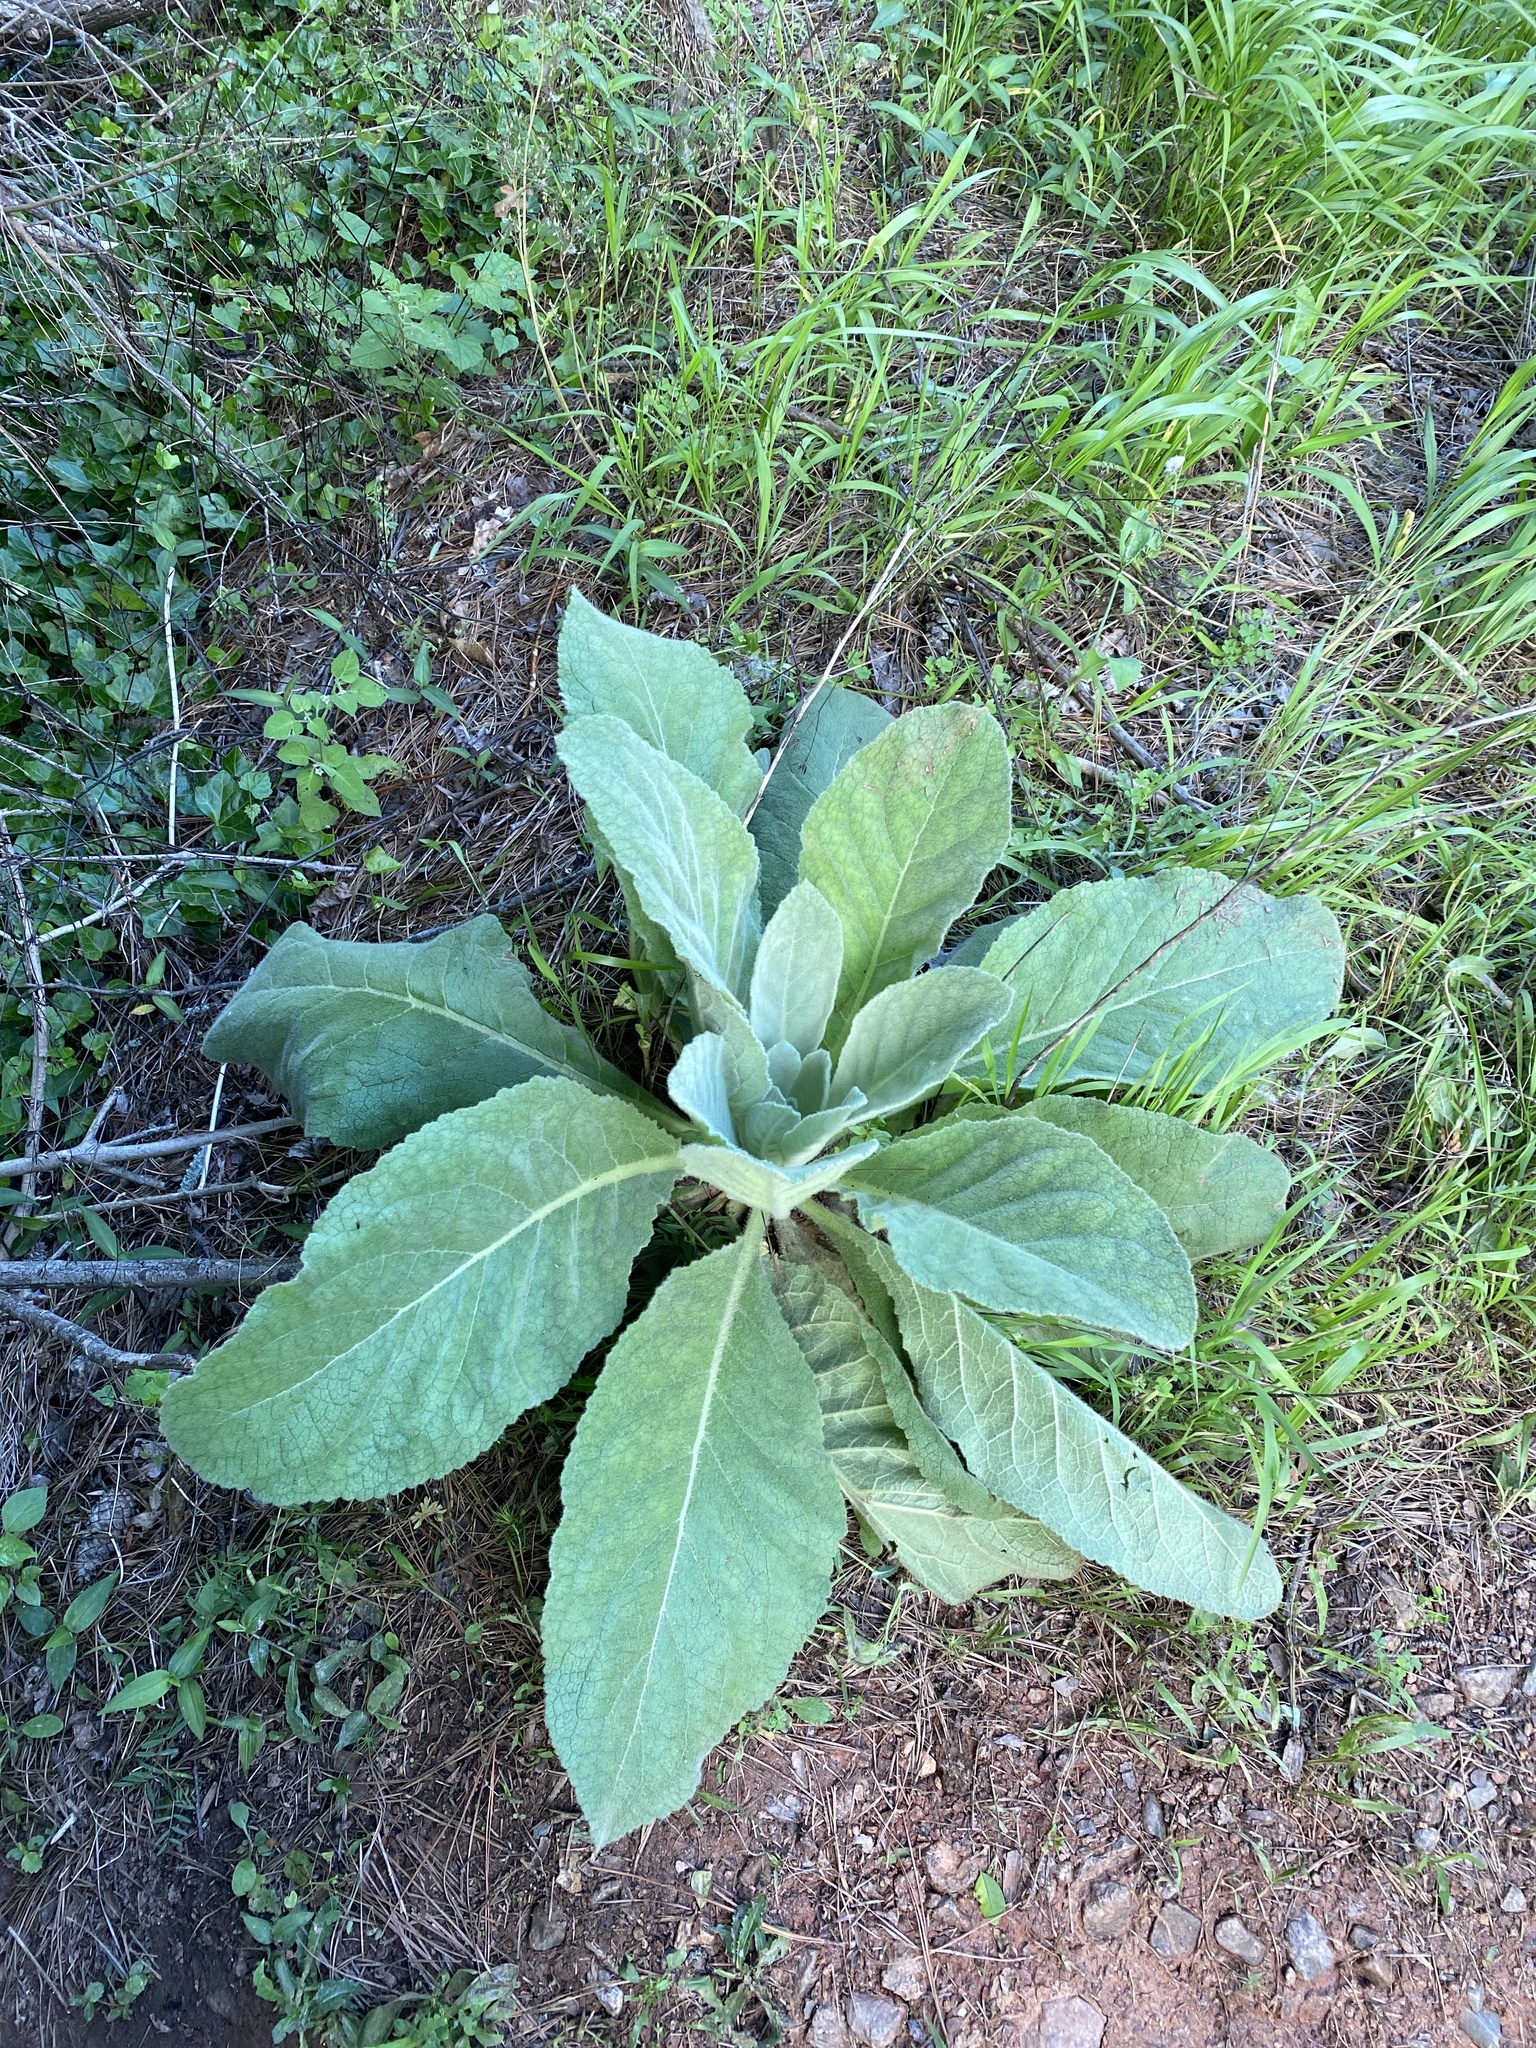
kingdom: Plantae
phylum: Tracheophyta
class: Magnoliopsida
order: Lamiales
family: Scrophulariaceae
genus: Verbascum
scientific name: Verbascum thapsus
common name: Common mullein
